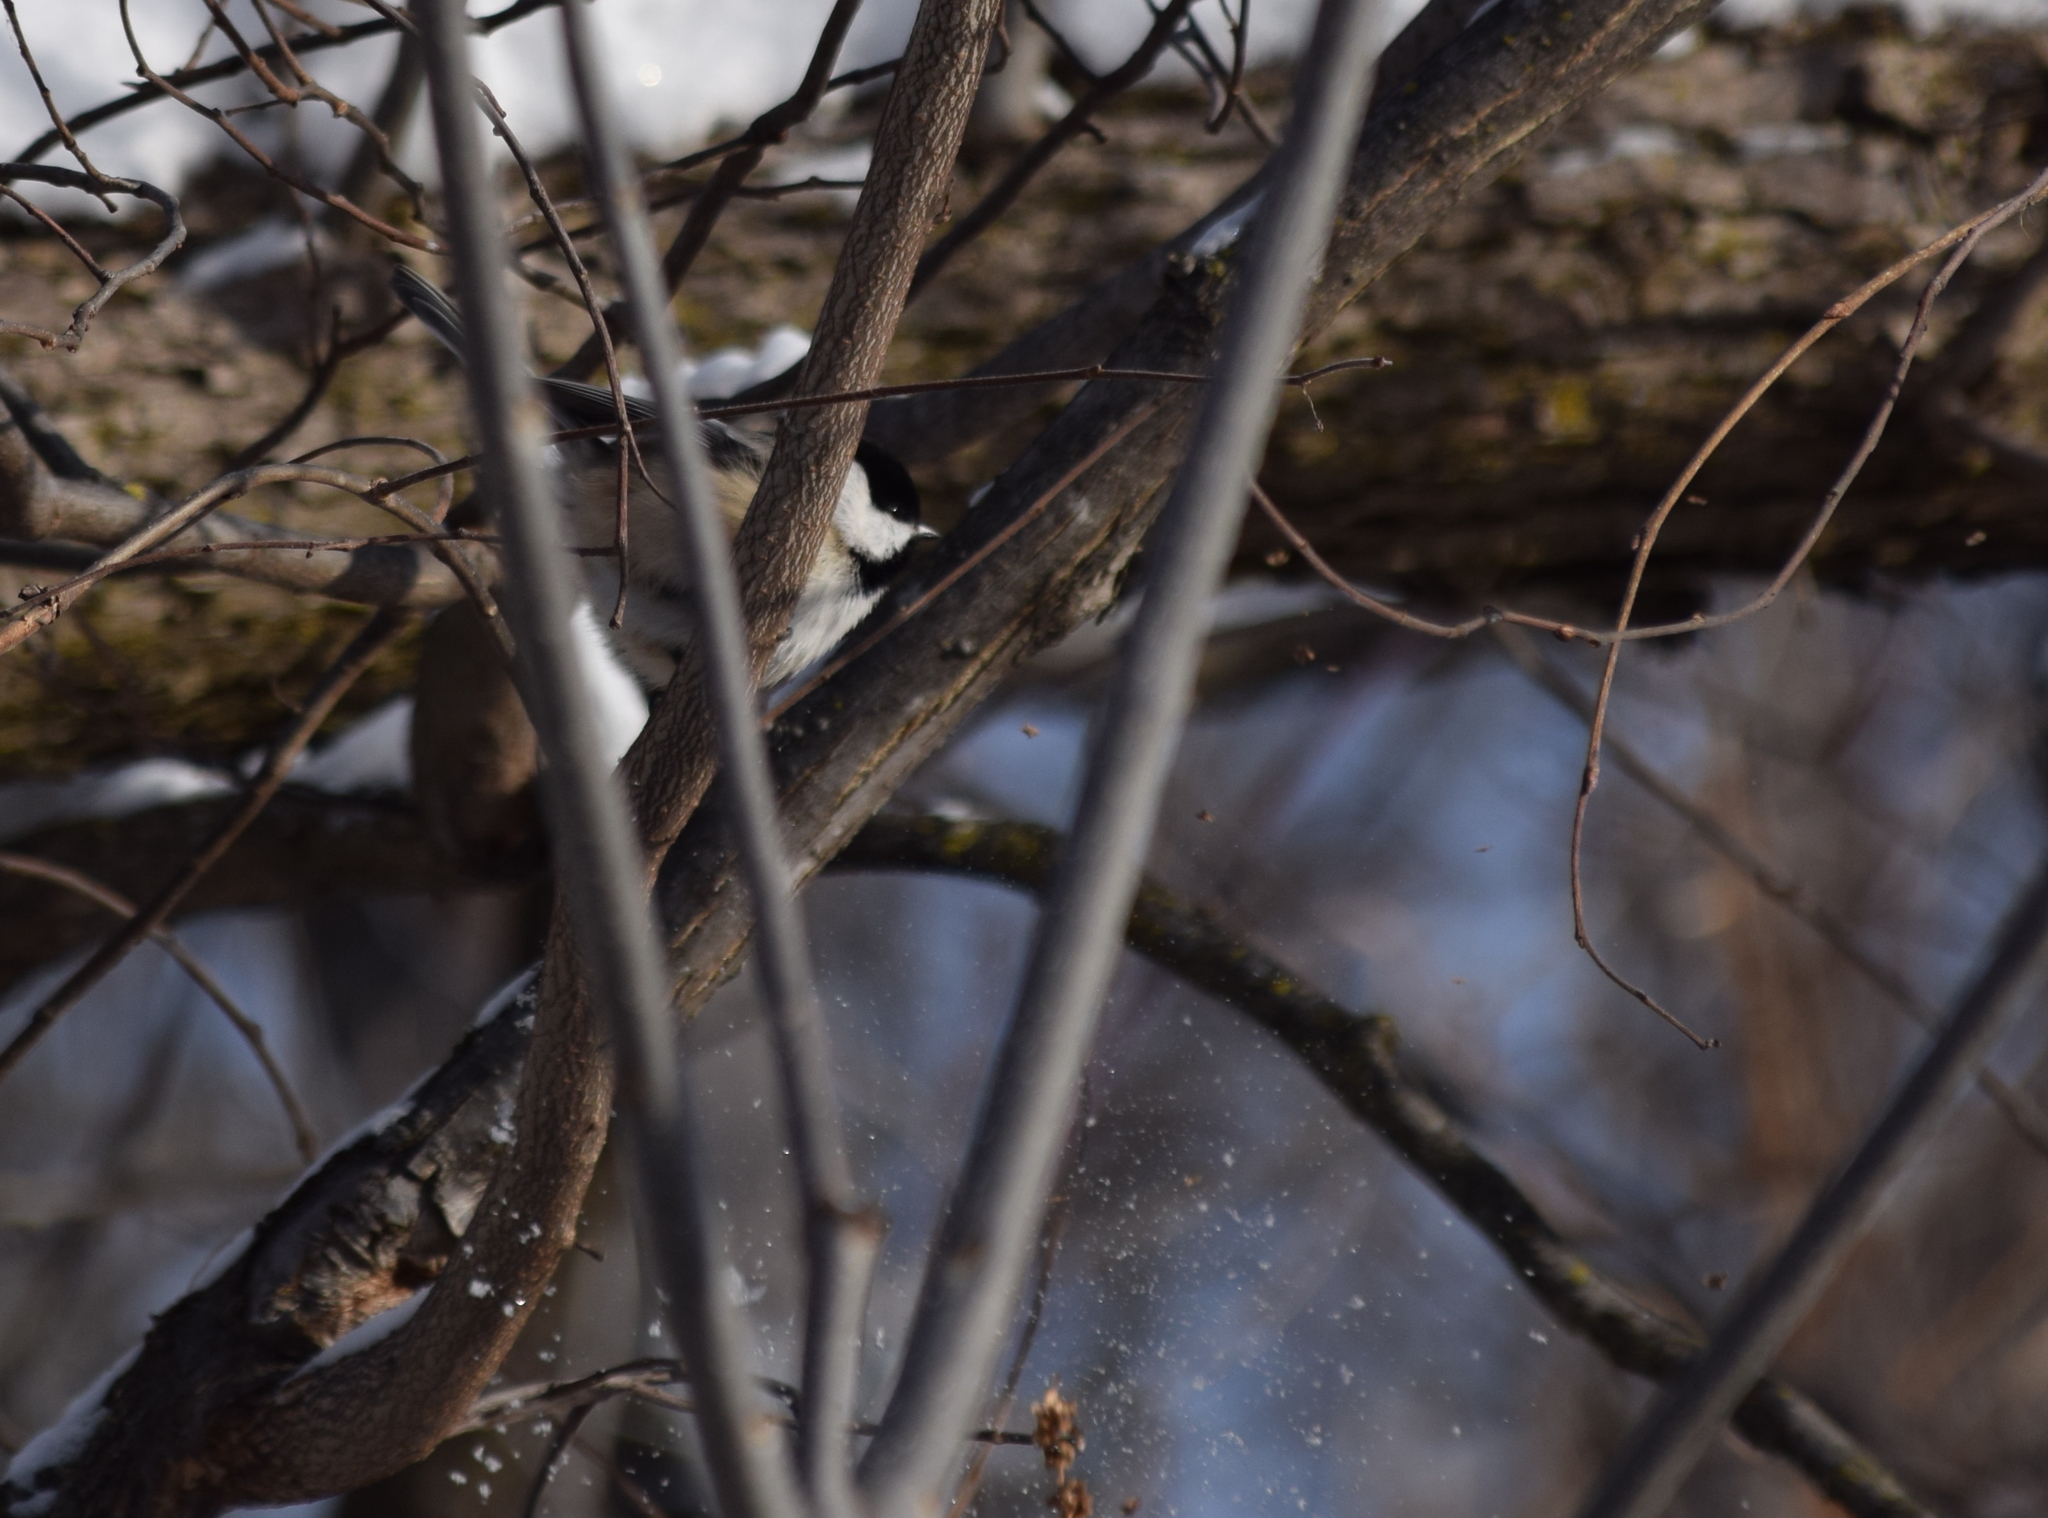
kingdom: Animalia
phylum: Chordata
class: Aves
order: Passeriformes
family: Paridae
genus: Poecile
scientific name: Poecile atricapillus
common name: Black-capped chickadee
